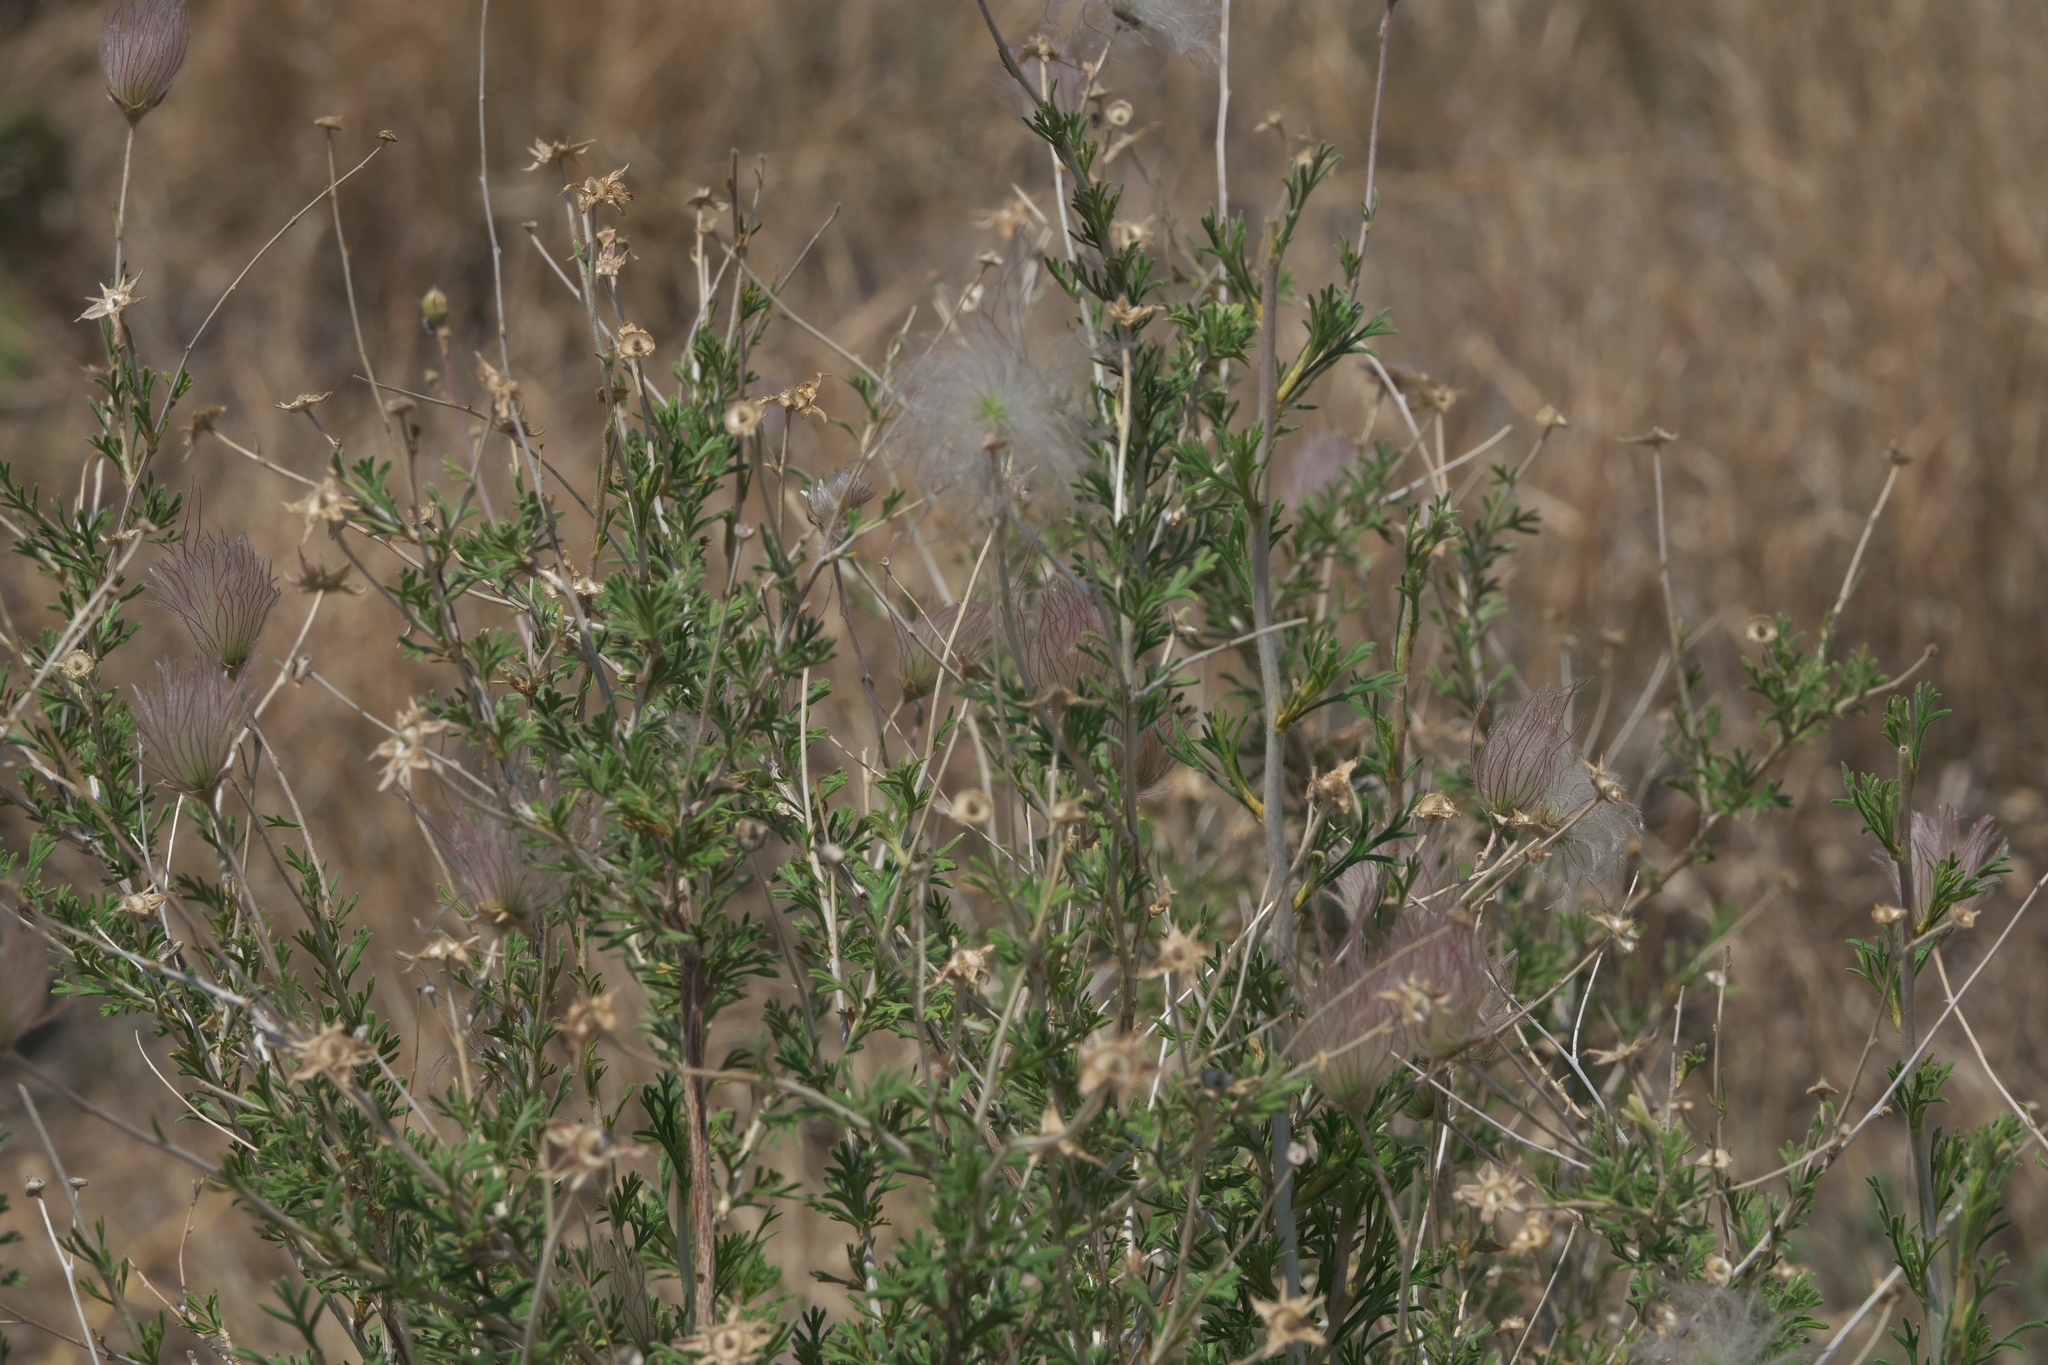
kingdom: Plantae
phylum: Tracheophyta
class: Magnoliopsida
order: Rosales
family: Rosaceae
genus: Fallugia
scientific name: Fallugia paradoxa
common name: Apache-plume
